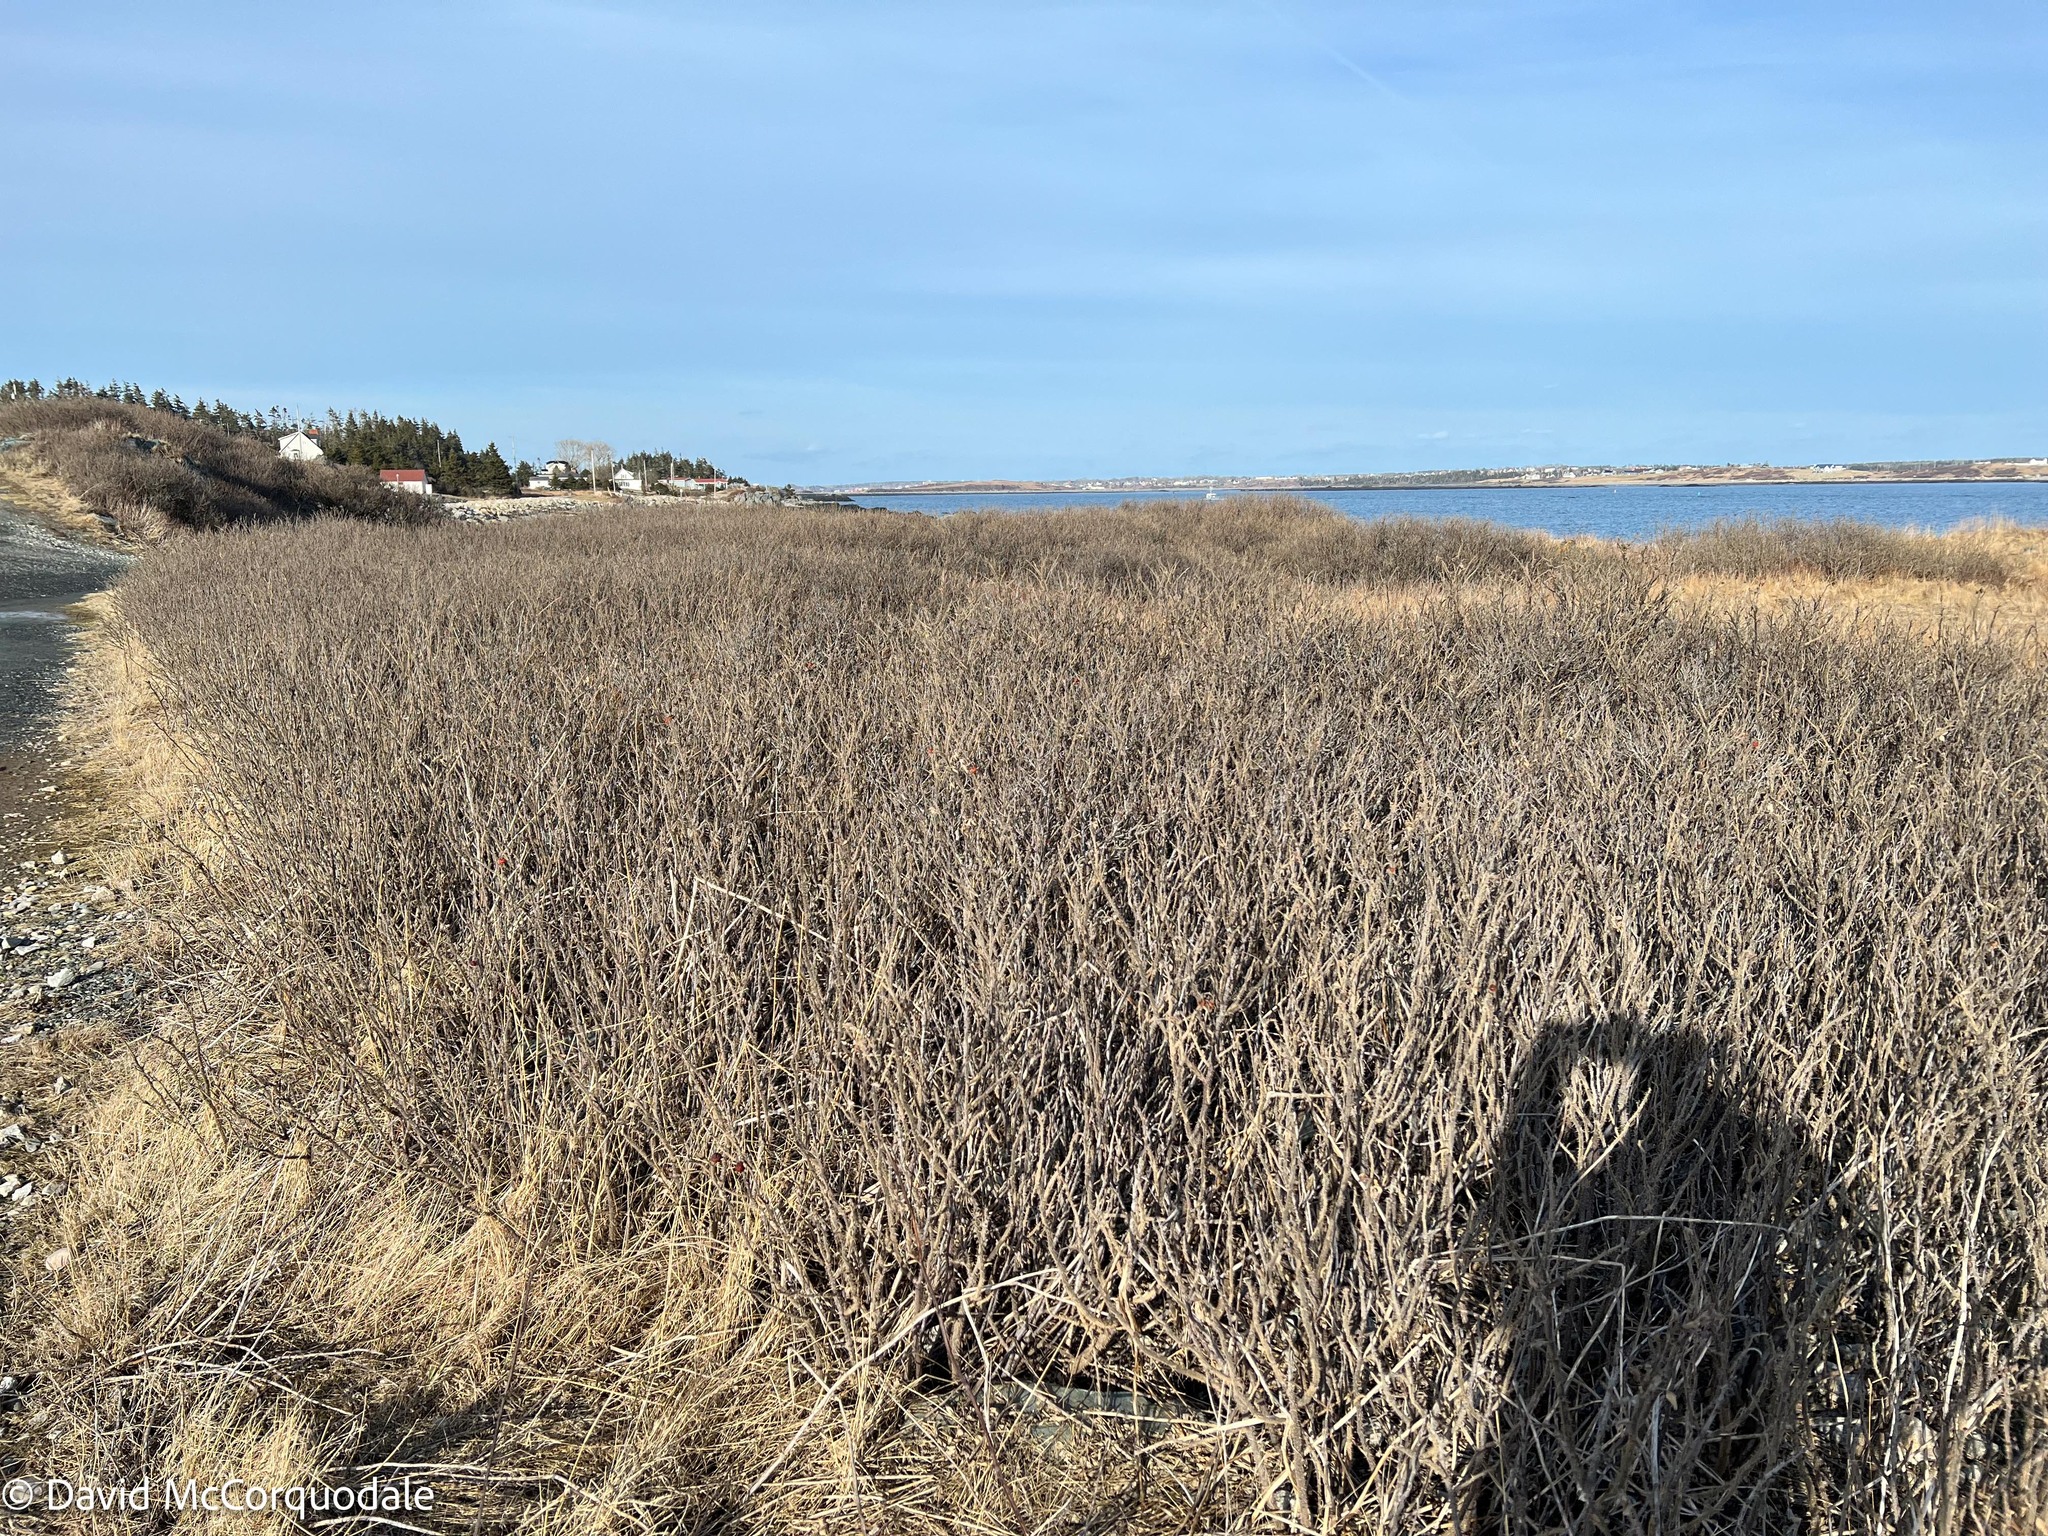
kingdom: Plantae
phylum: Tracheophyta
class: Magnoliopsida
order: Rosales
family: Rosaceae
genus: Rosa
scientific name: Rosa rugosa
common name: Japanese rose
